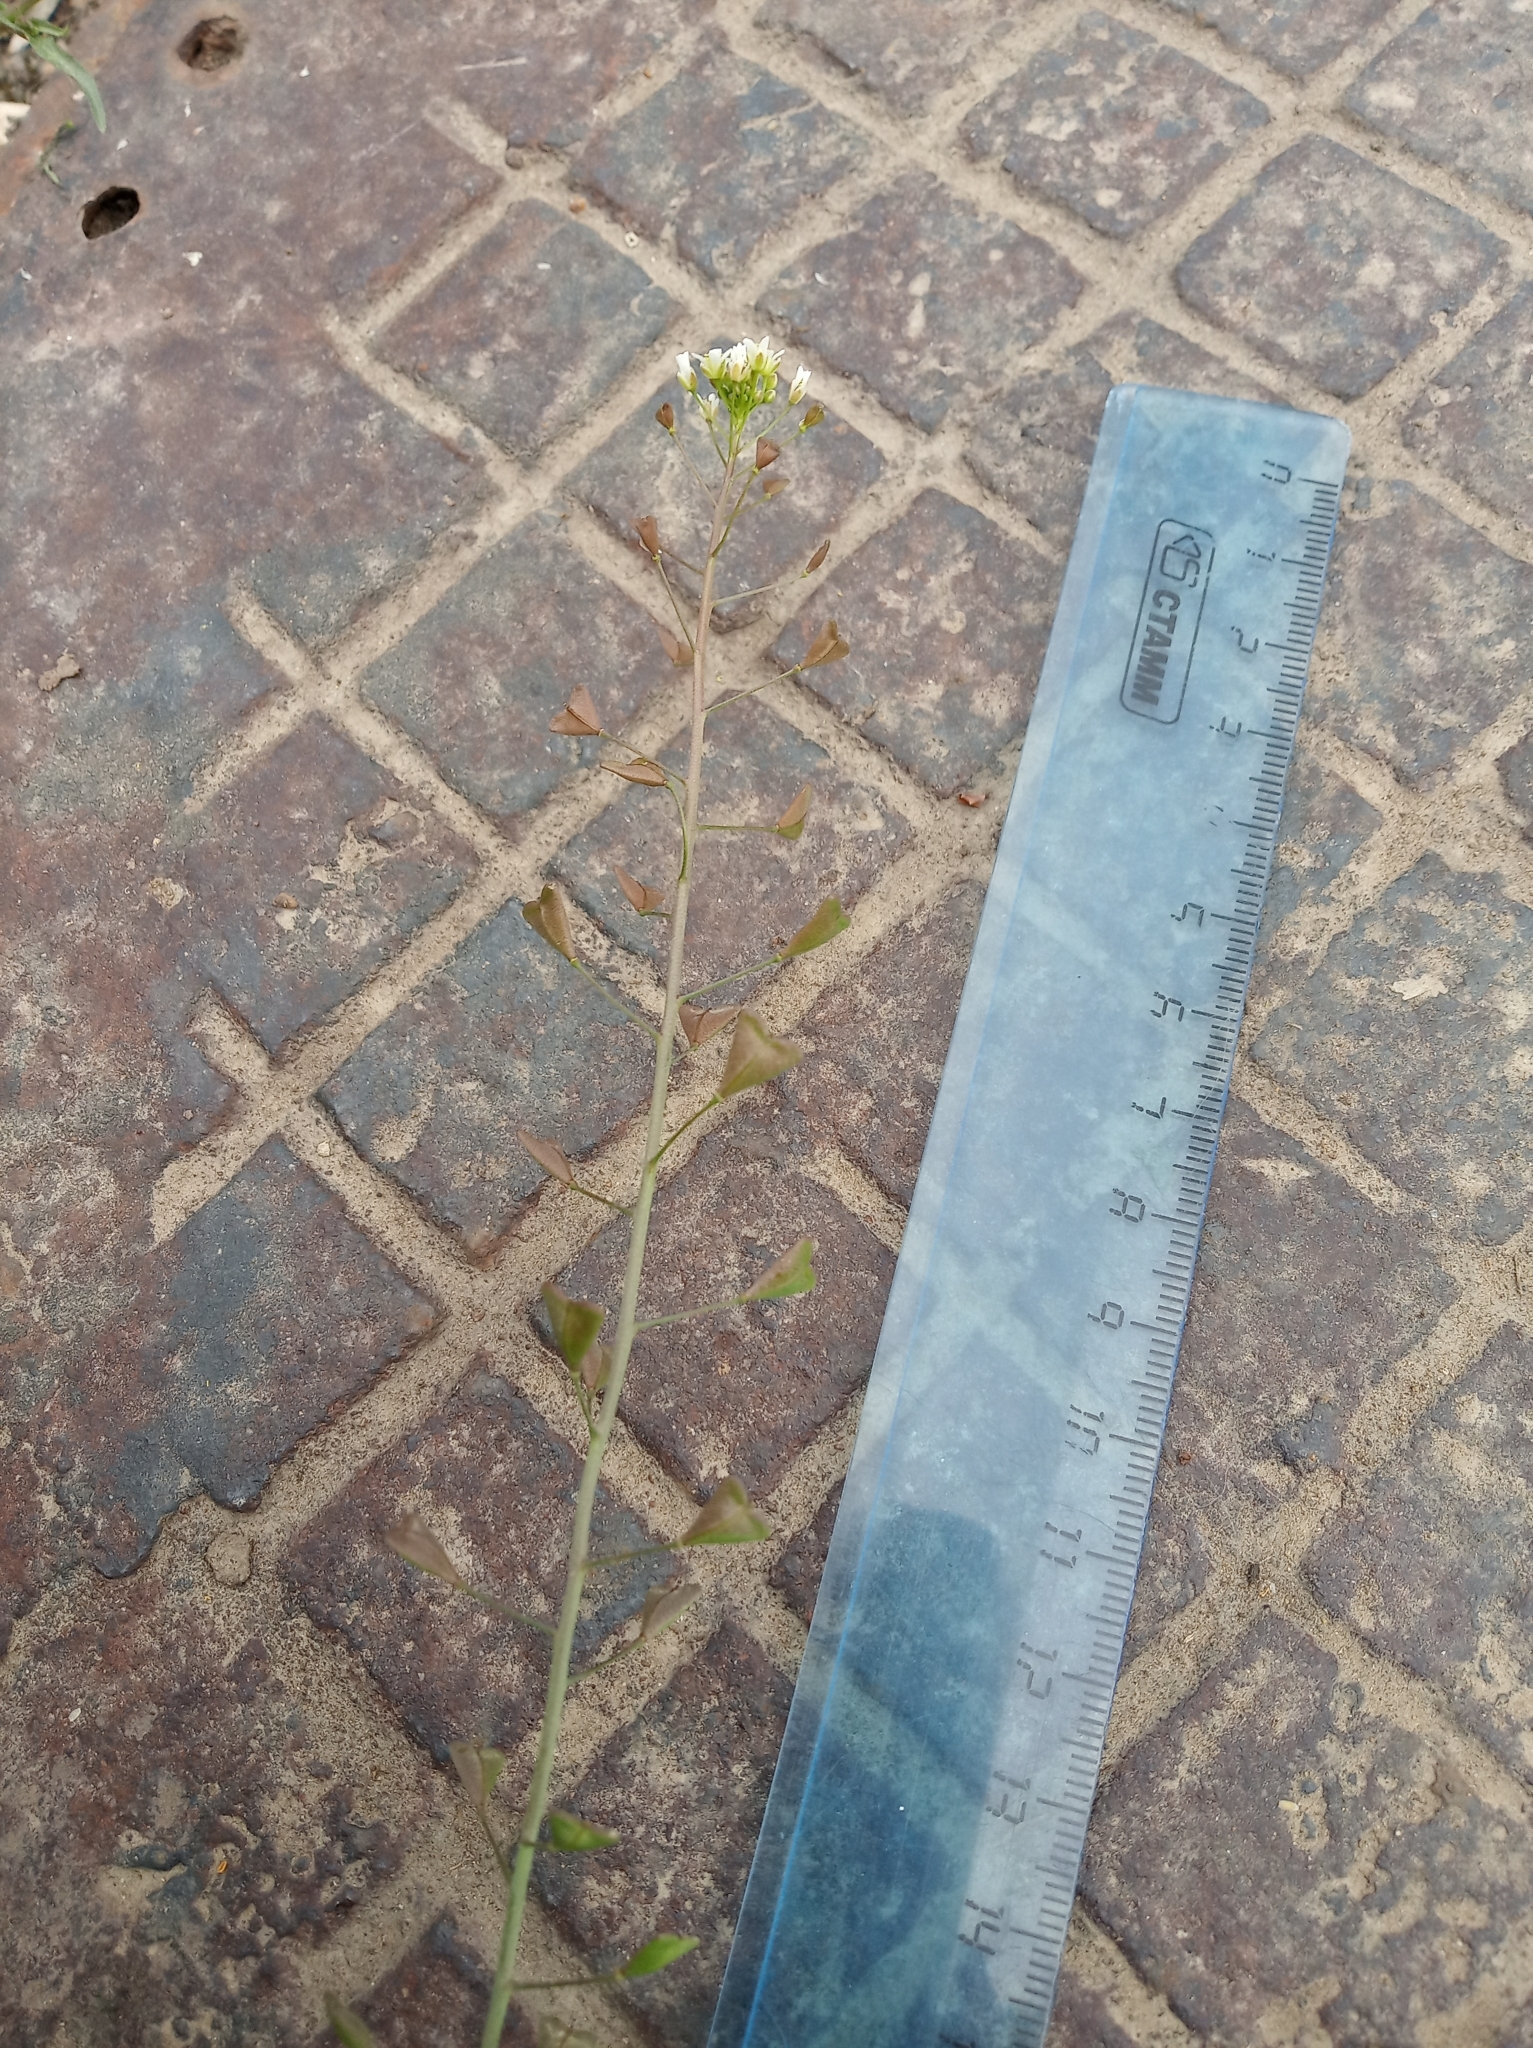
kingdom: Plantae
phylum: Tracheophyta
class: Magnoliopsida
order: Brassicales
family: Brassicaceae
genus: Capsella
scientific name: Capsella bursa-pastoris
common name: Shepherd's purse
